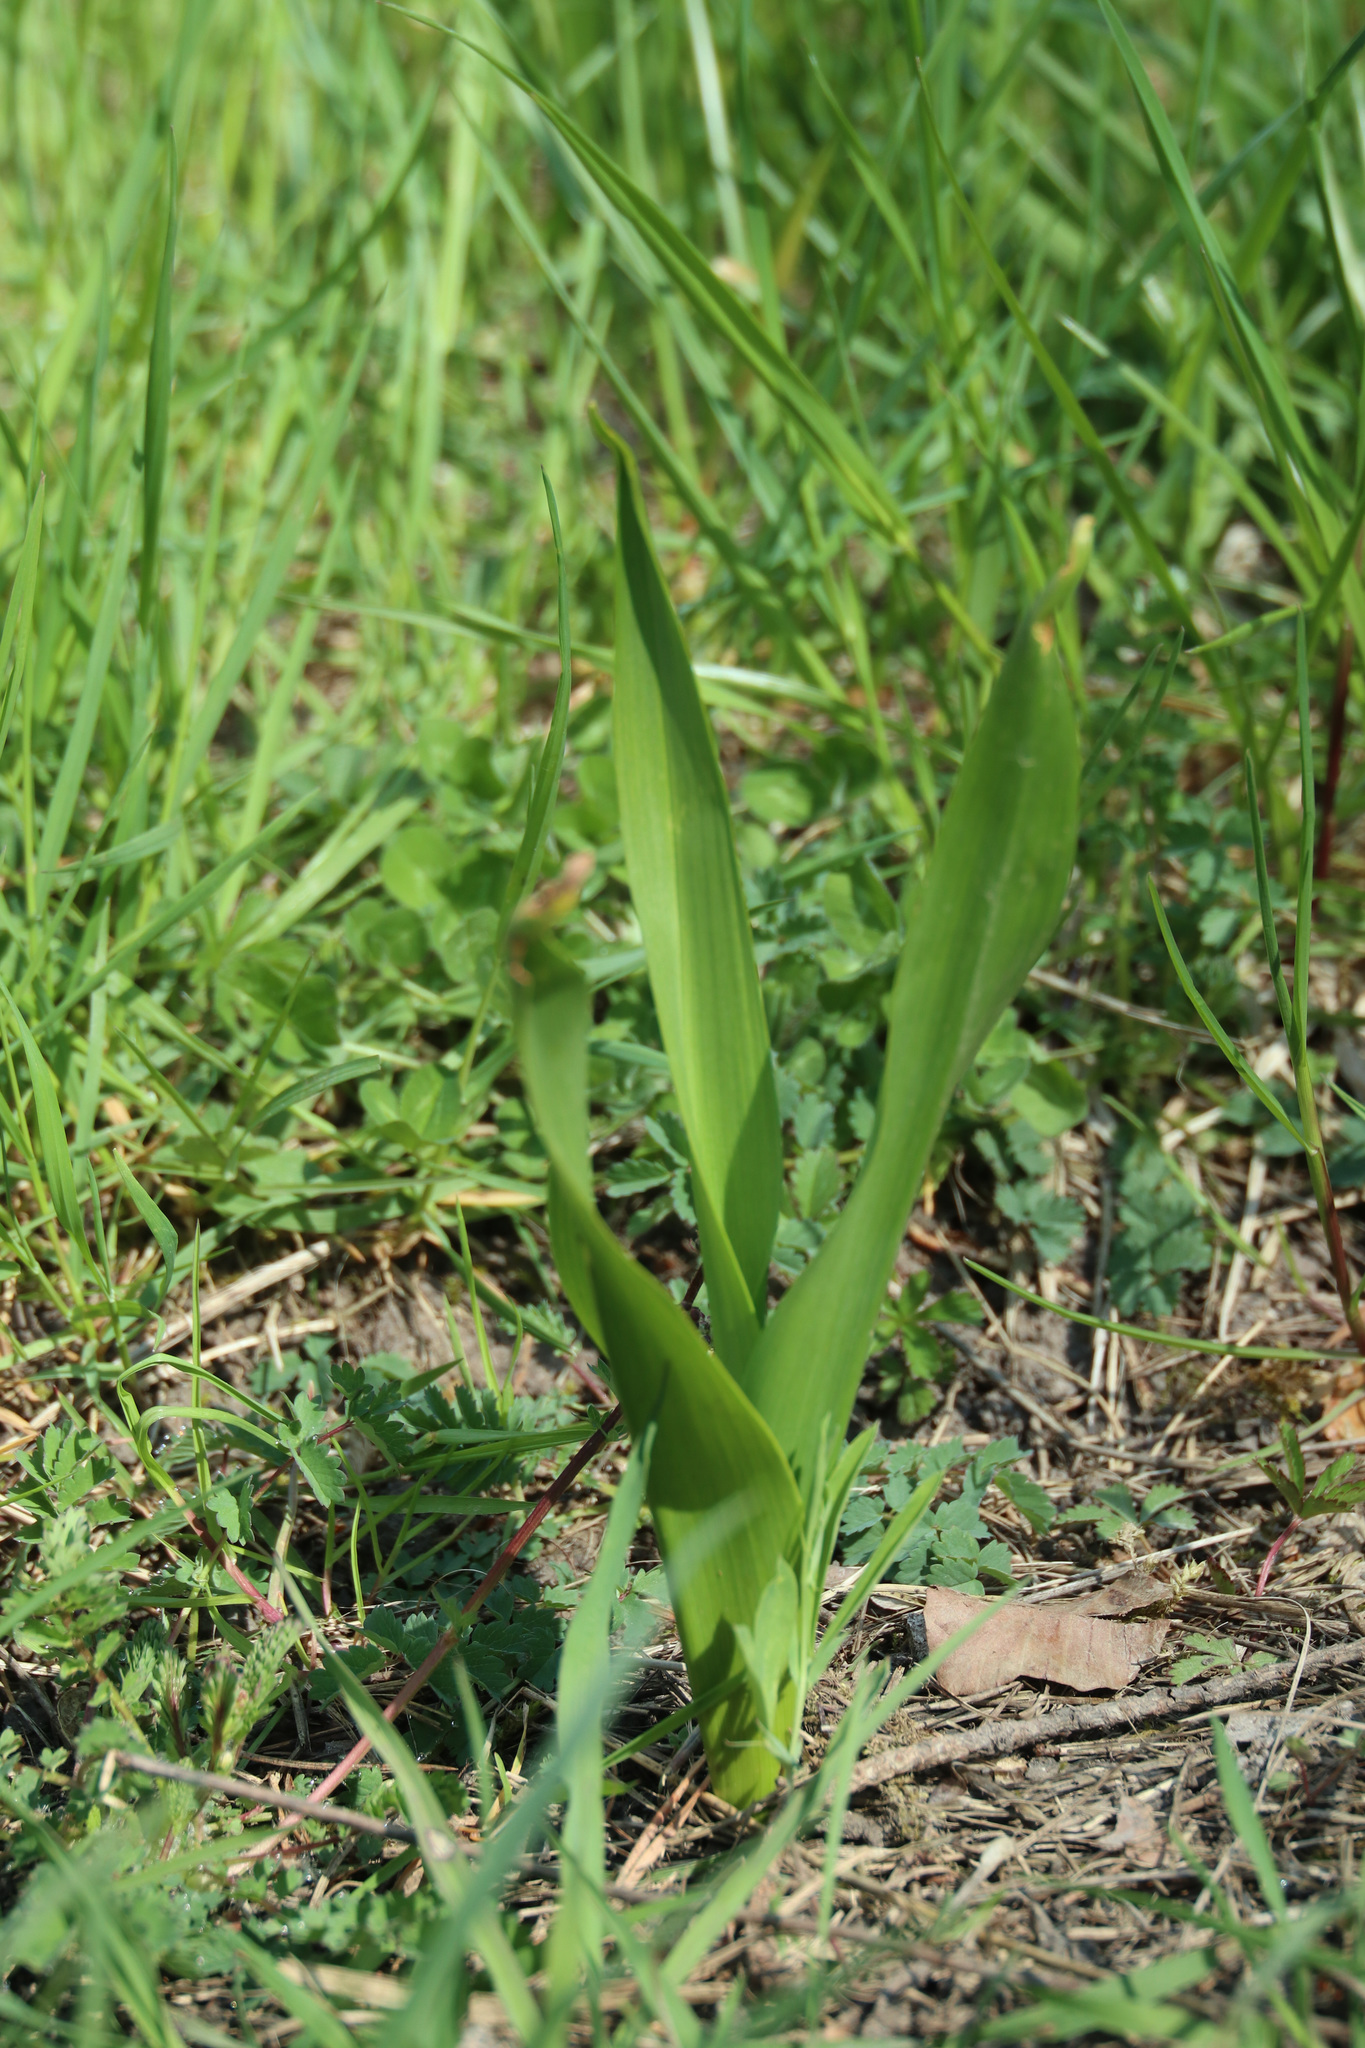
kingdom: Plantae
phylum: Tracheophyta
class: Liliopsida
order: Liliales
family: Colchicaceae
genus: Colchicum
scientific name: Colchicum autumnale
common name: Autumn crocus
